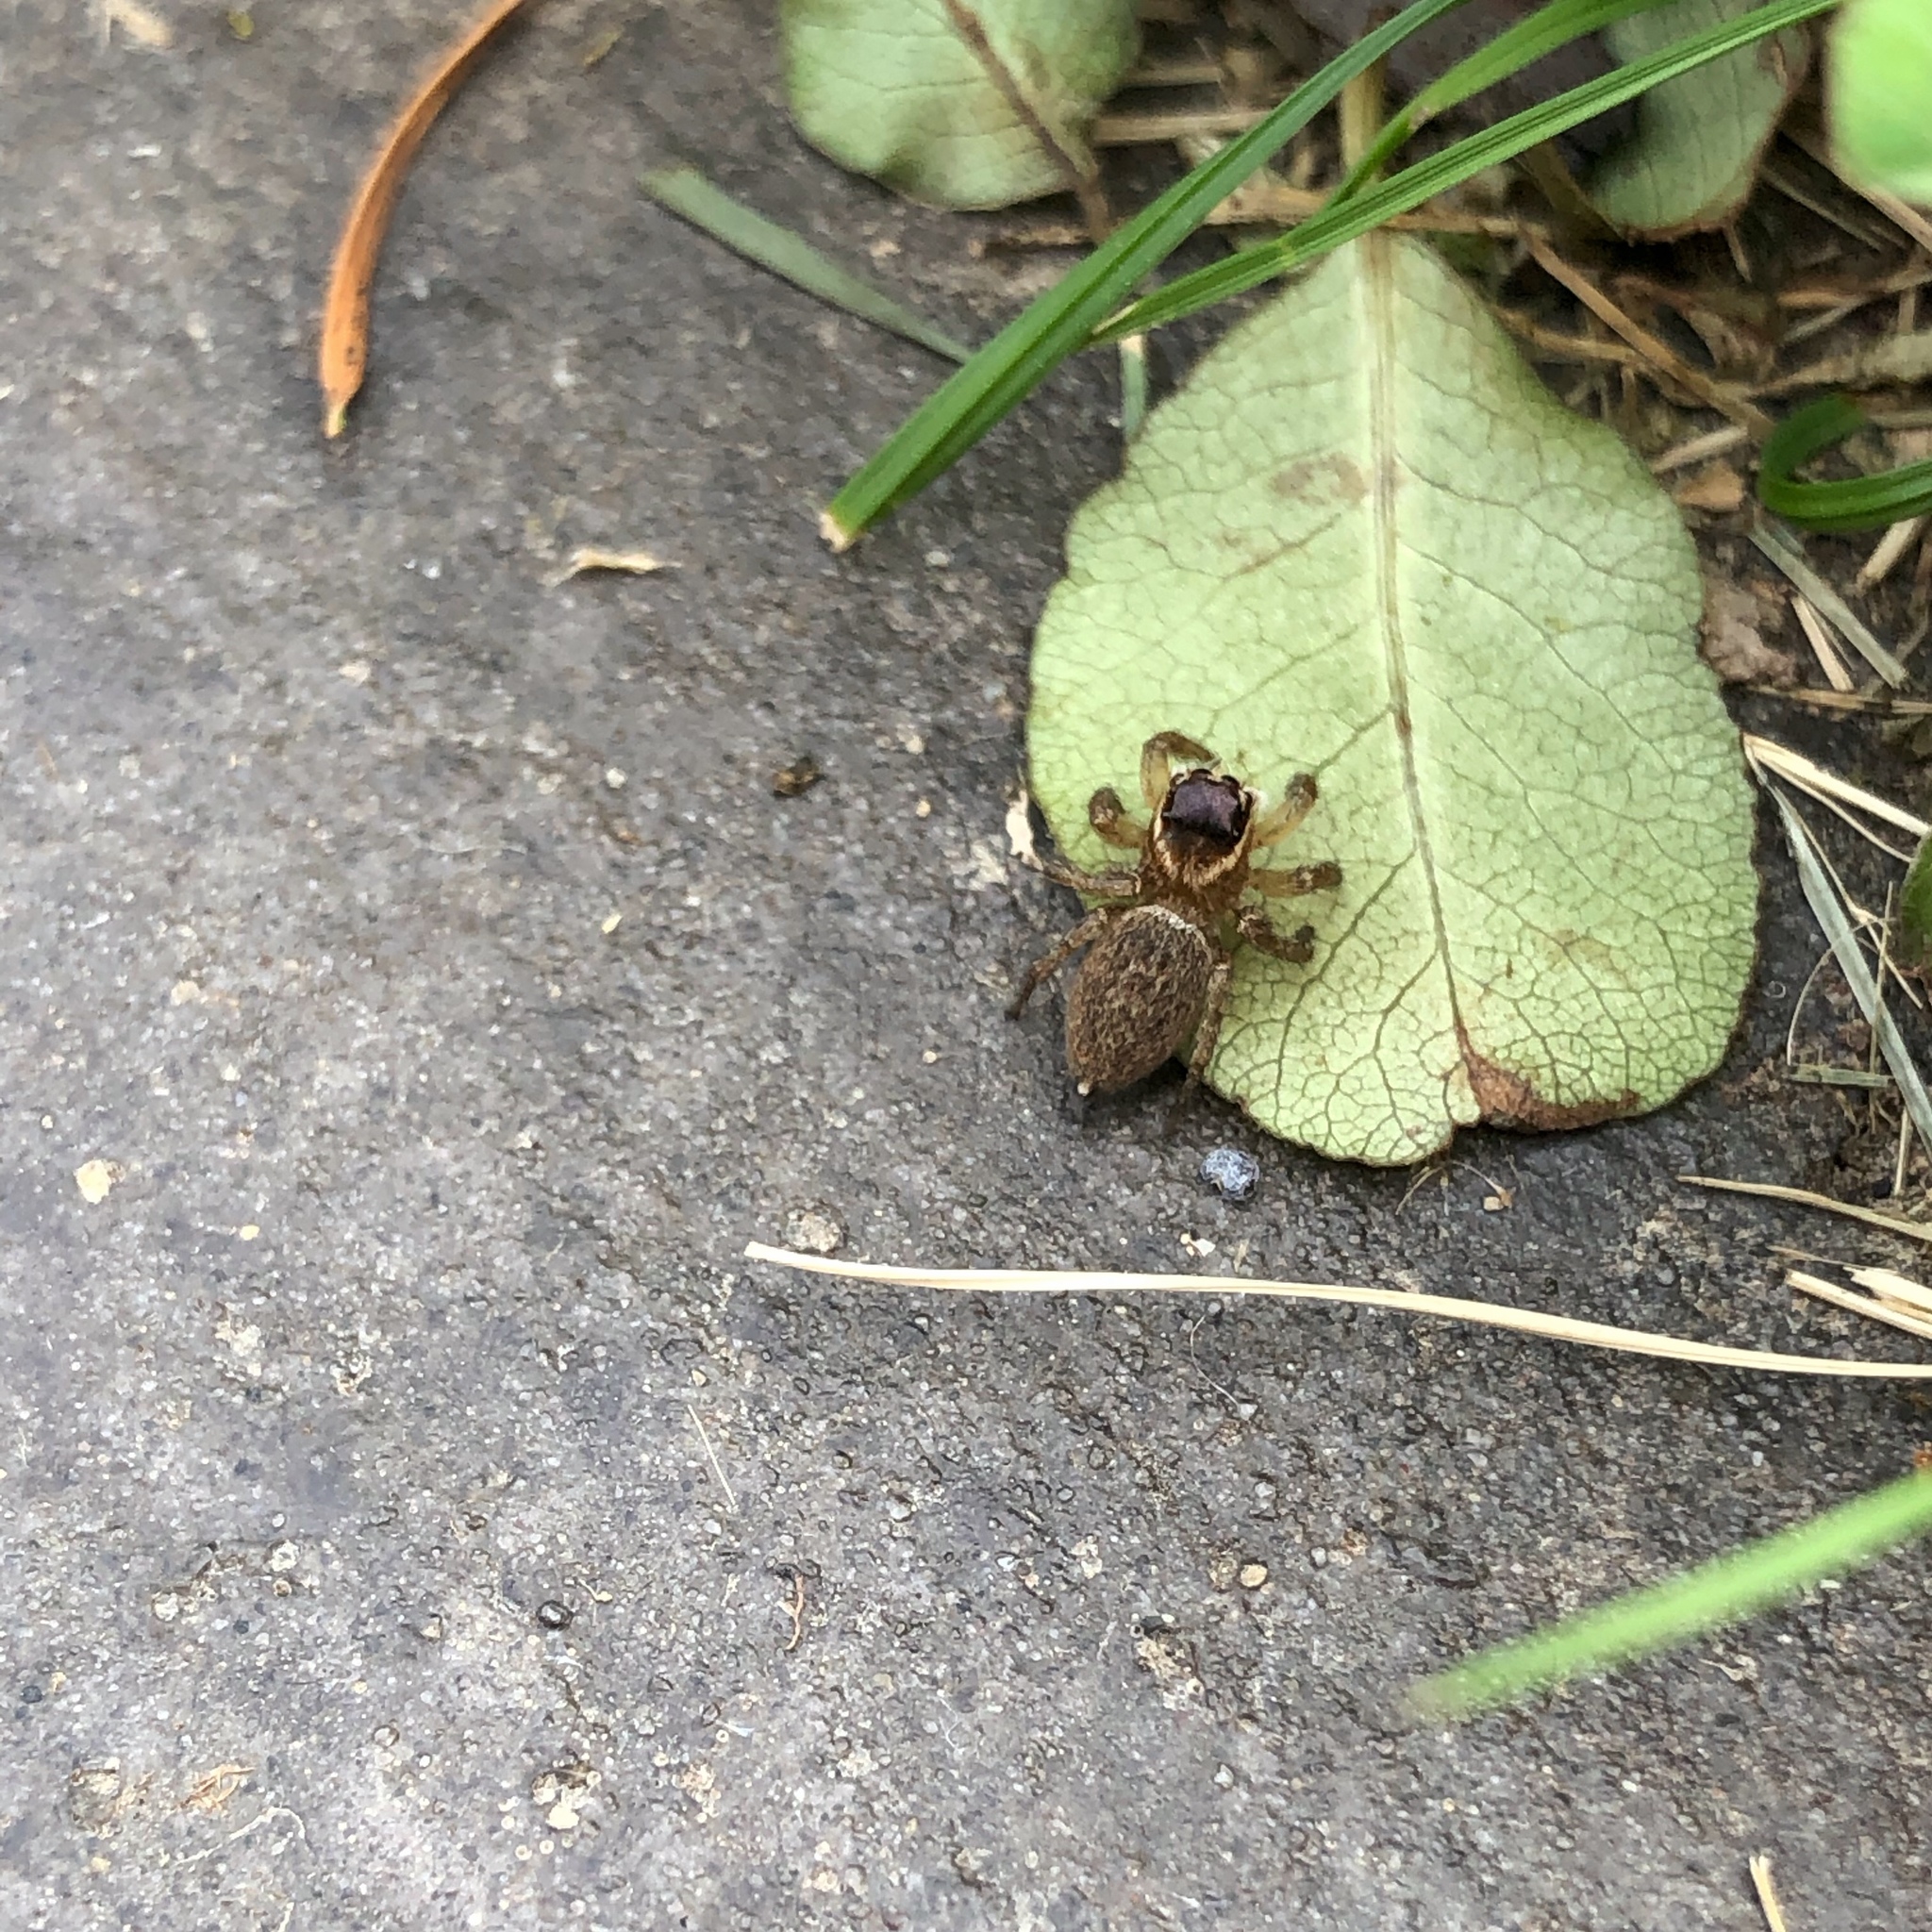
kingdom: Animalia
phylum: Arthropoda
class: Arachnida
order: Araneae
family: Salticidae
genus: Maratus
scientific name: Maratus griseus
